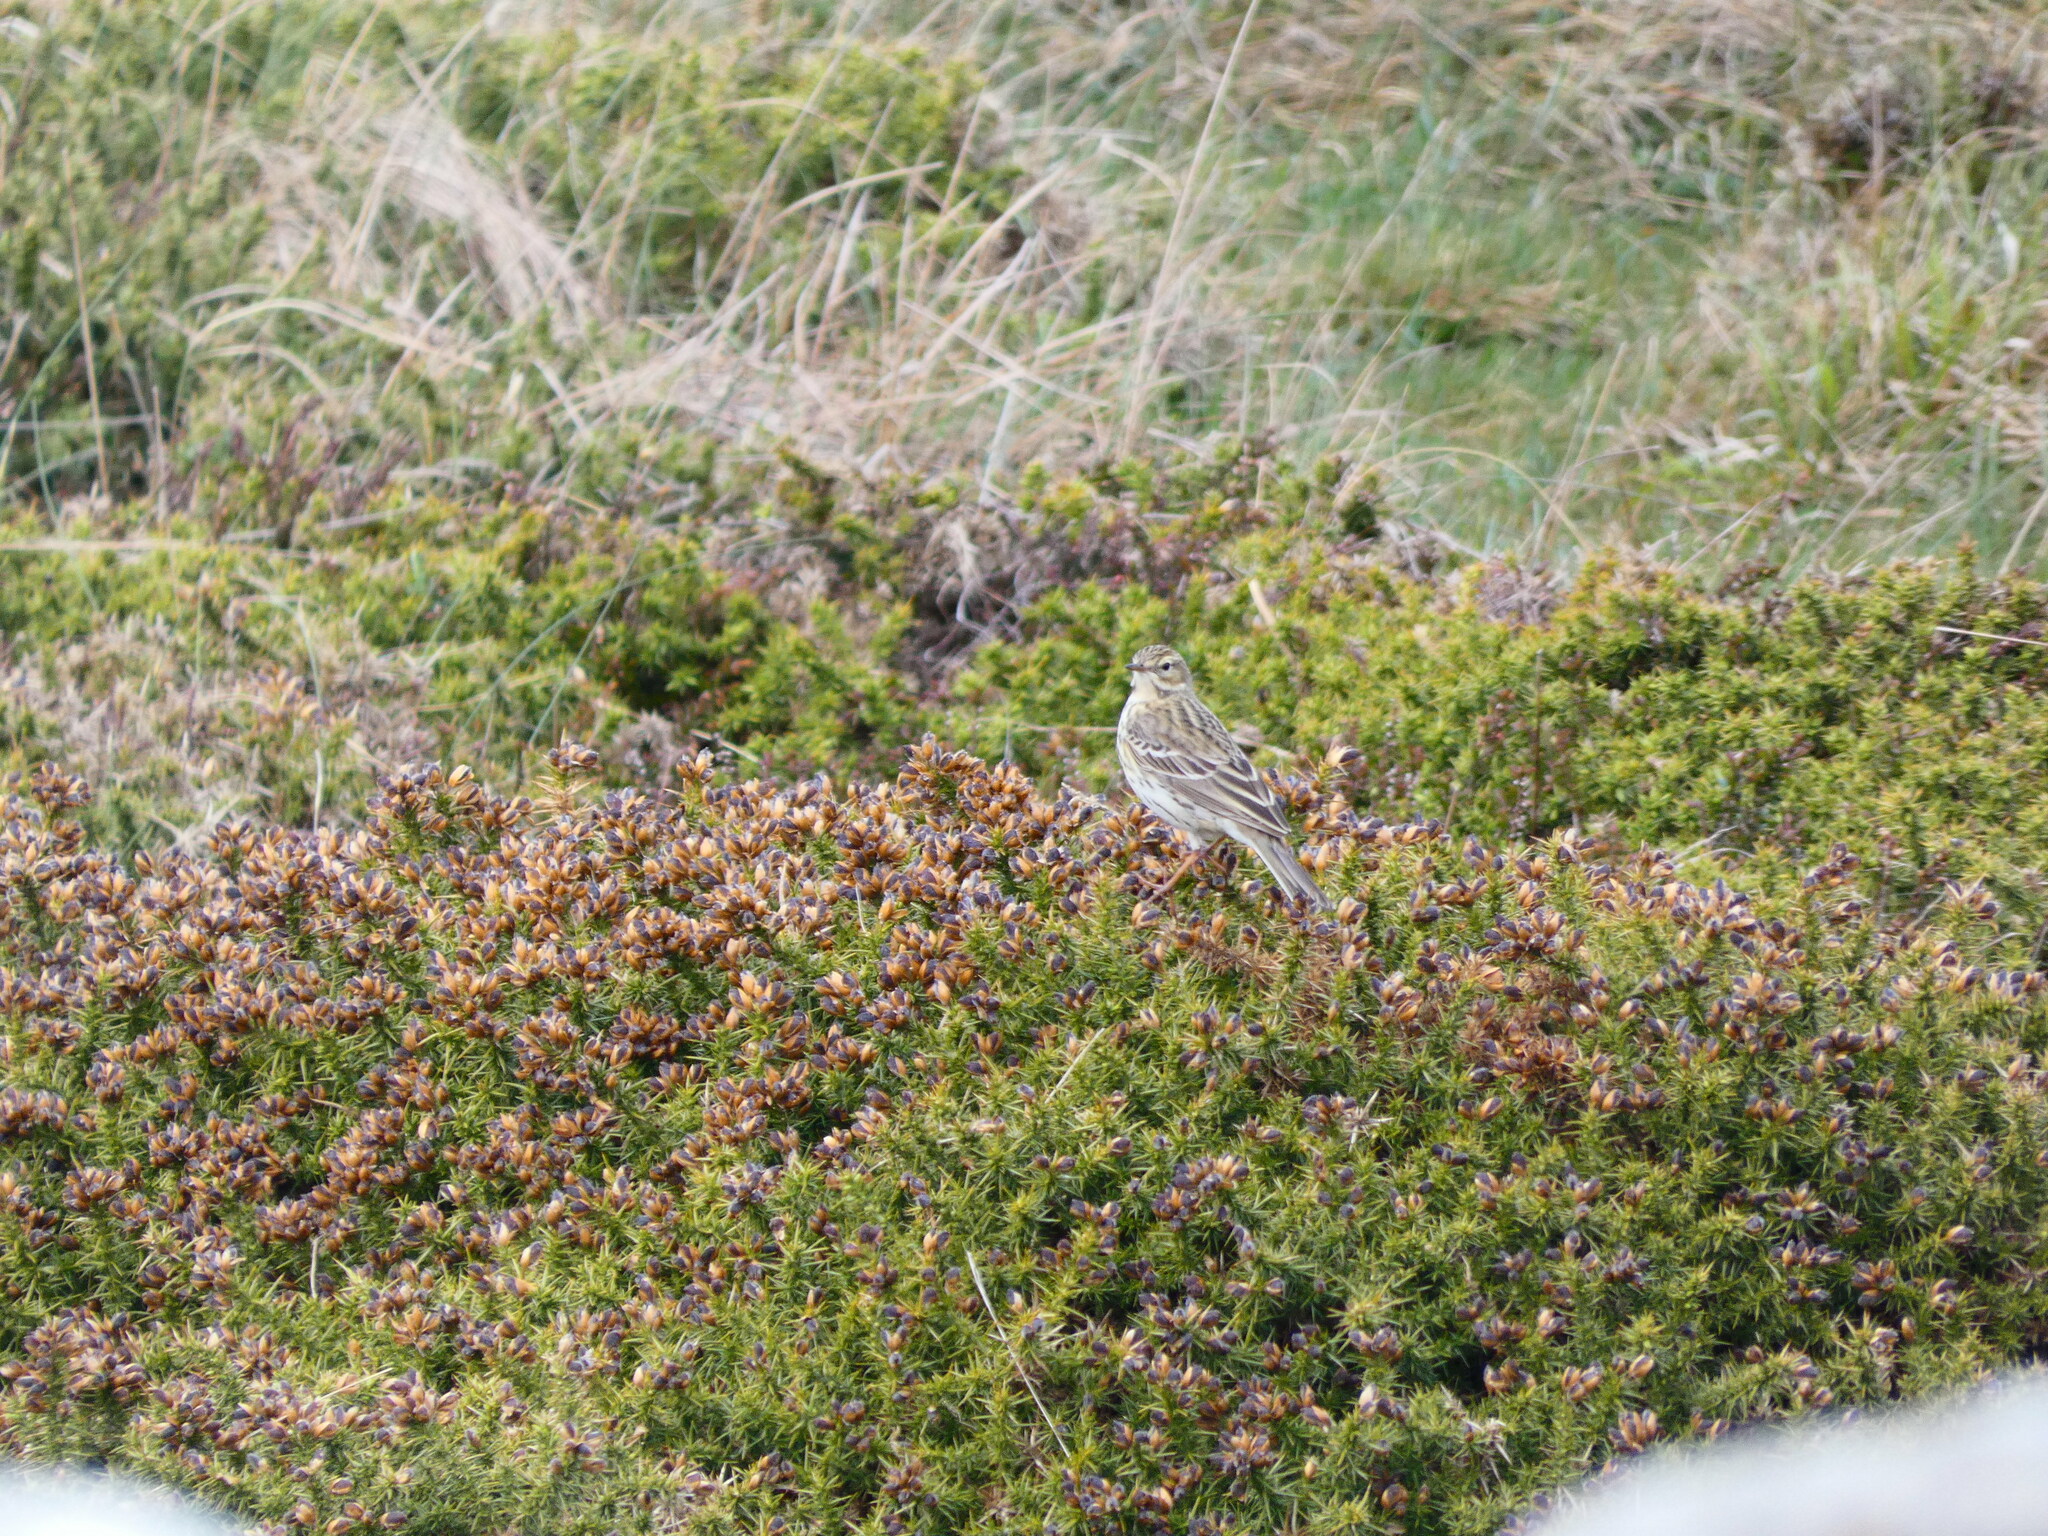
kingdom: Animalia
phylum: Chordata
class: Aves
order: Passeriformes
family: Motacillidae
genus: Anthus
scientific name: Anthus pratensis
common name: Meadow pipit
